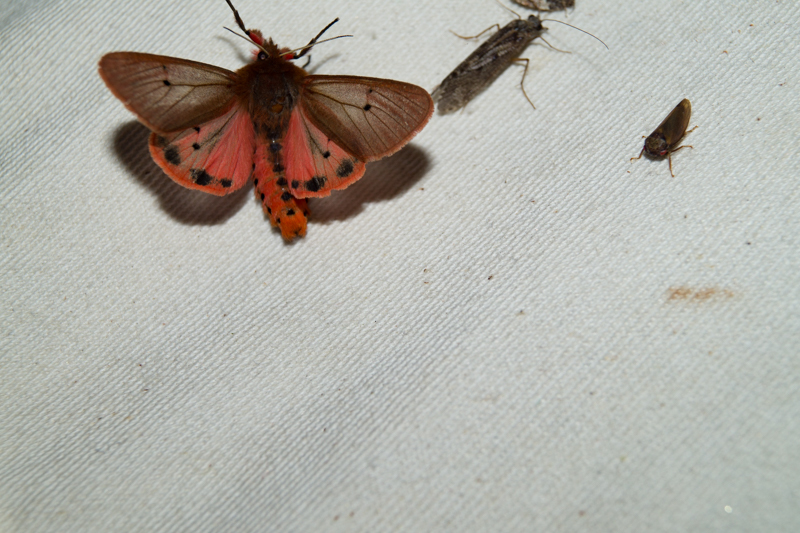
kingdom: Animalia
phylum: Arthropoda
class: Insecta
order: Lepidoptera
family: Erebidae
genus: Phragmatobia
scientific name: Phragmatobia fuliginosa
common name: Ruby tiger
